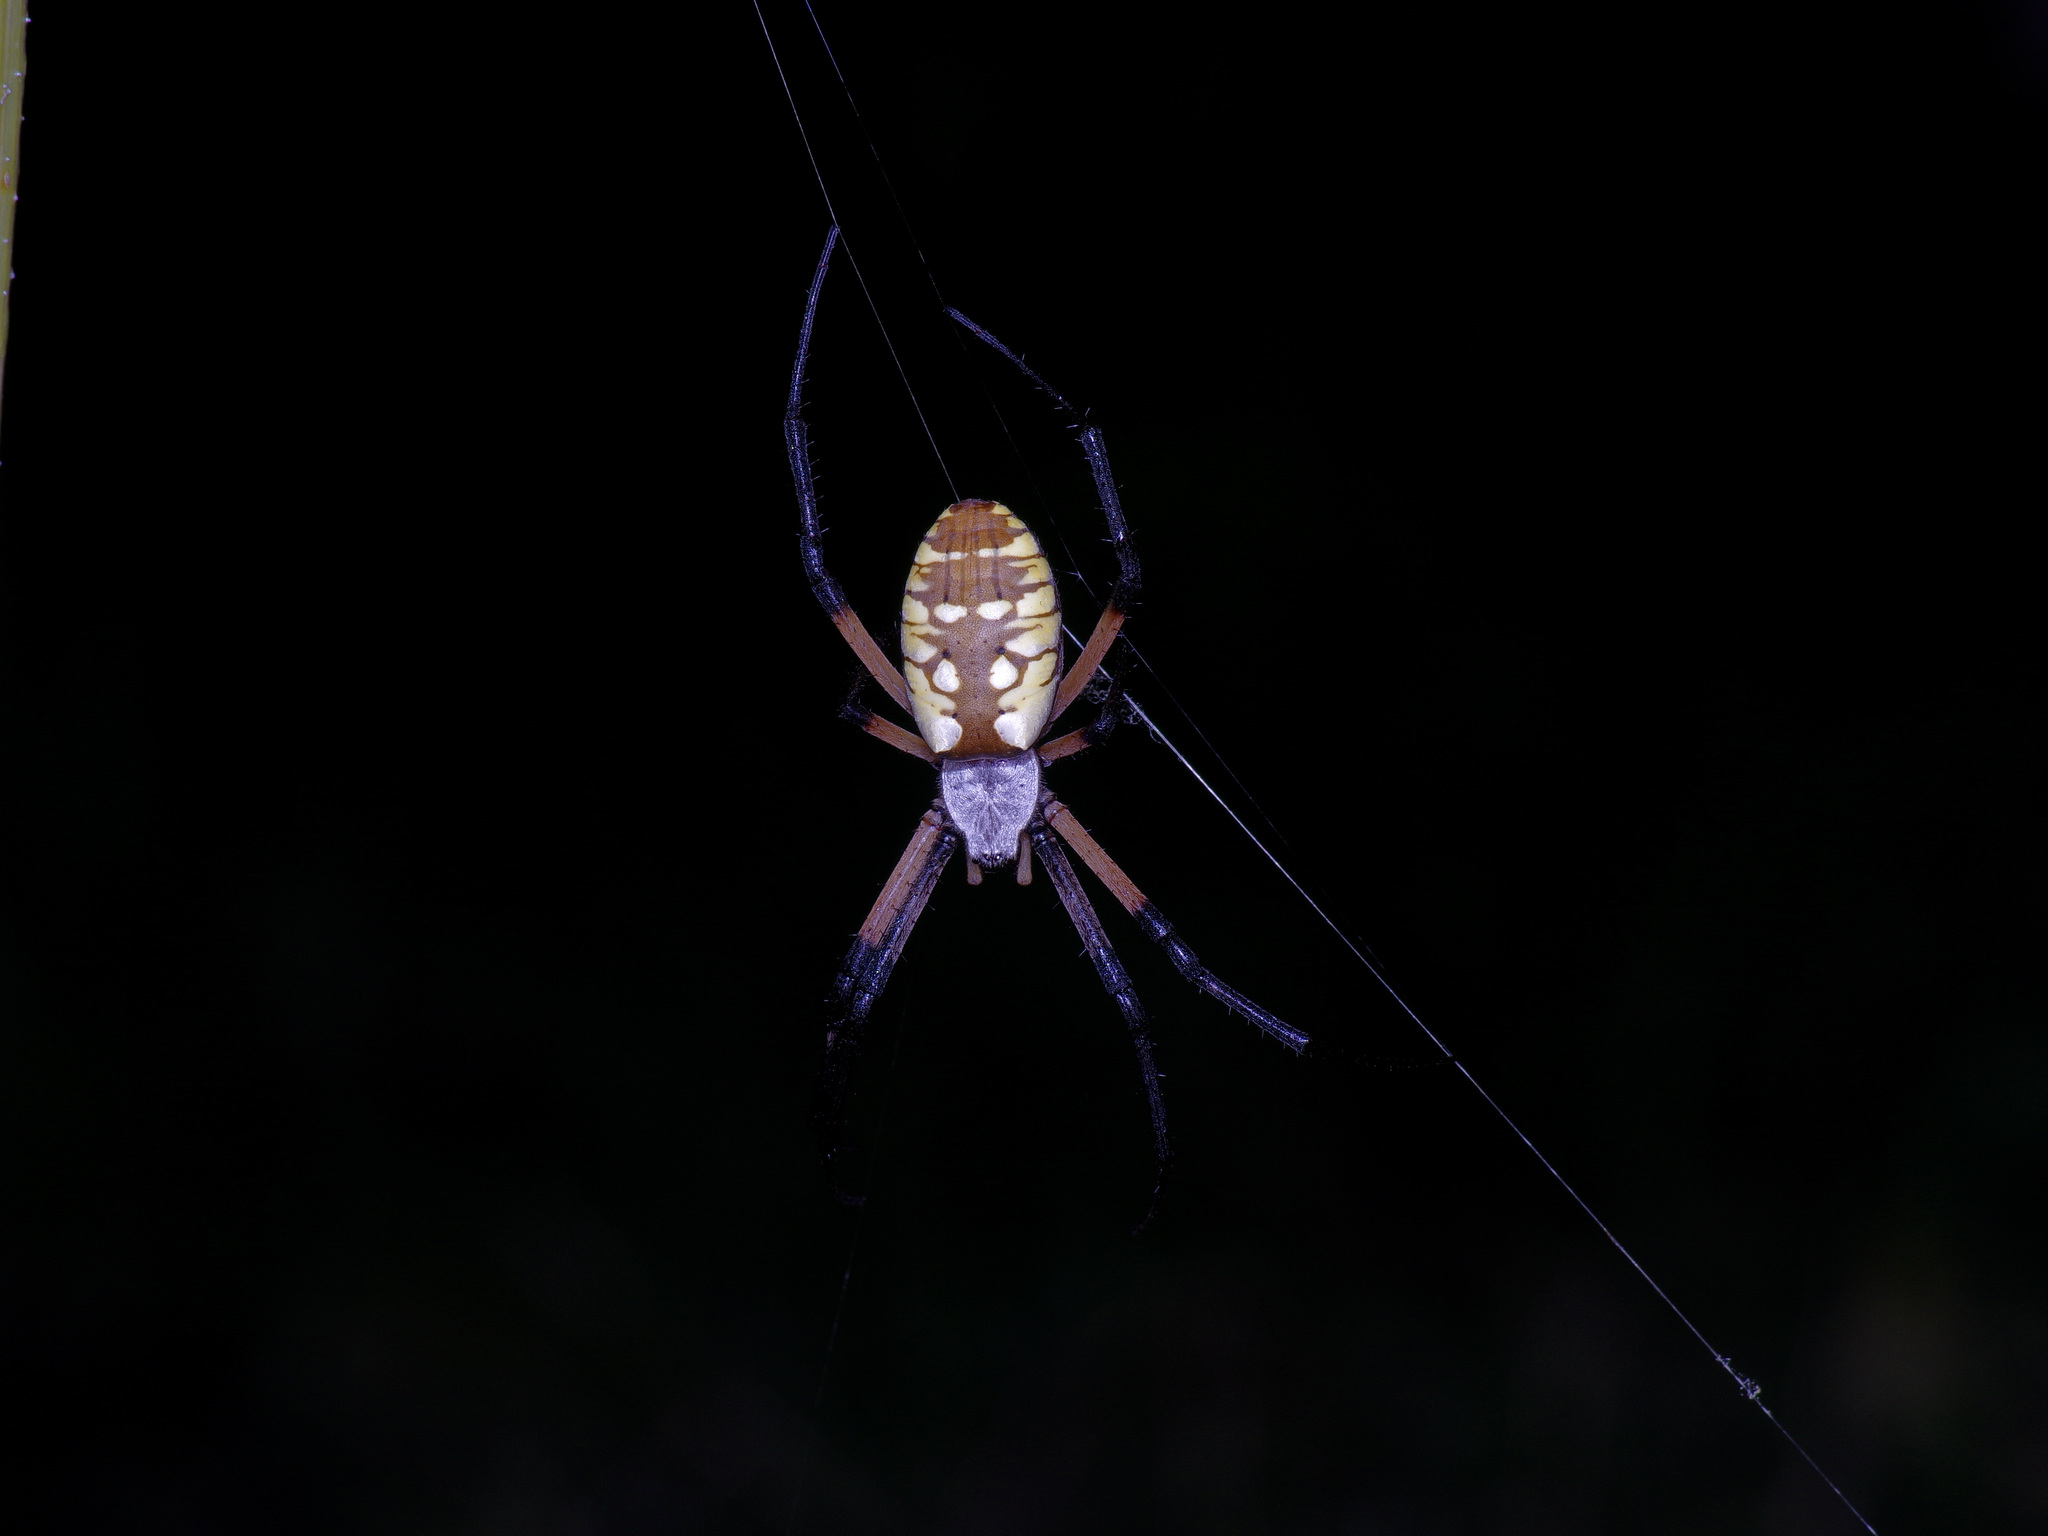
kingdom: Animalia
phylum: Arthropoda
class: Arachnida
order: Araneae
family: Araneidae
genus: Argiope
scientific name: Argiope aurantia
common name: Orb weavers
